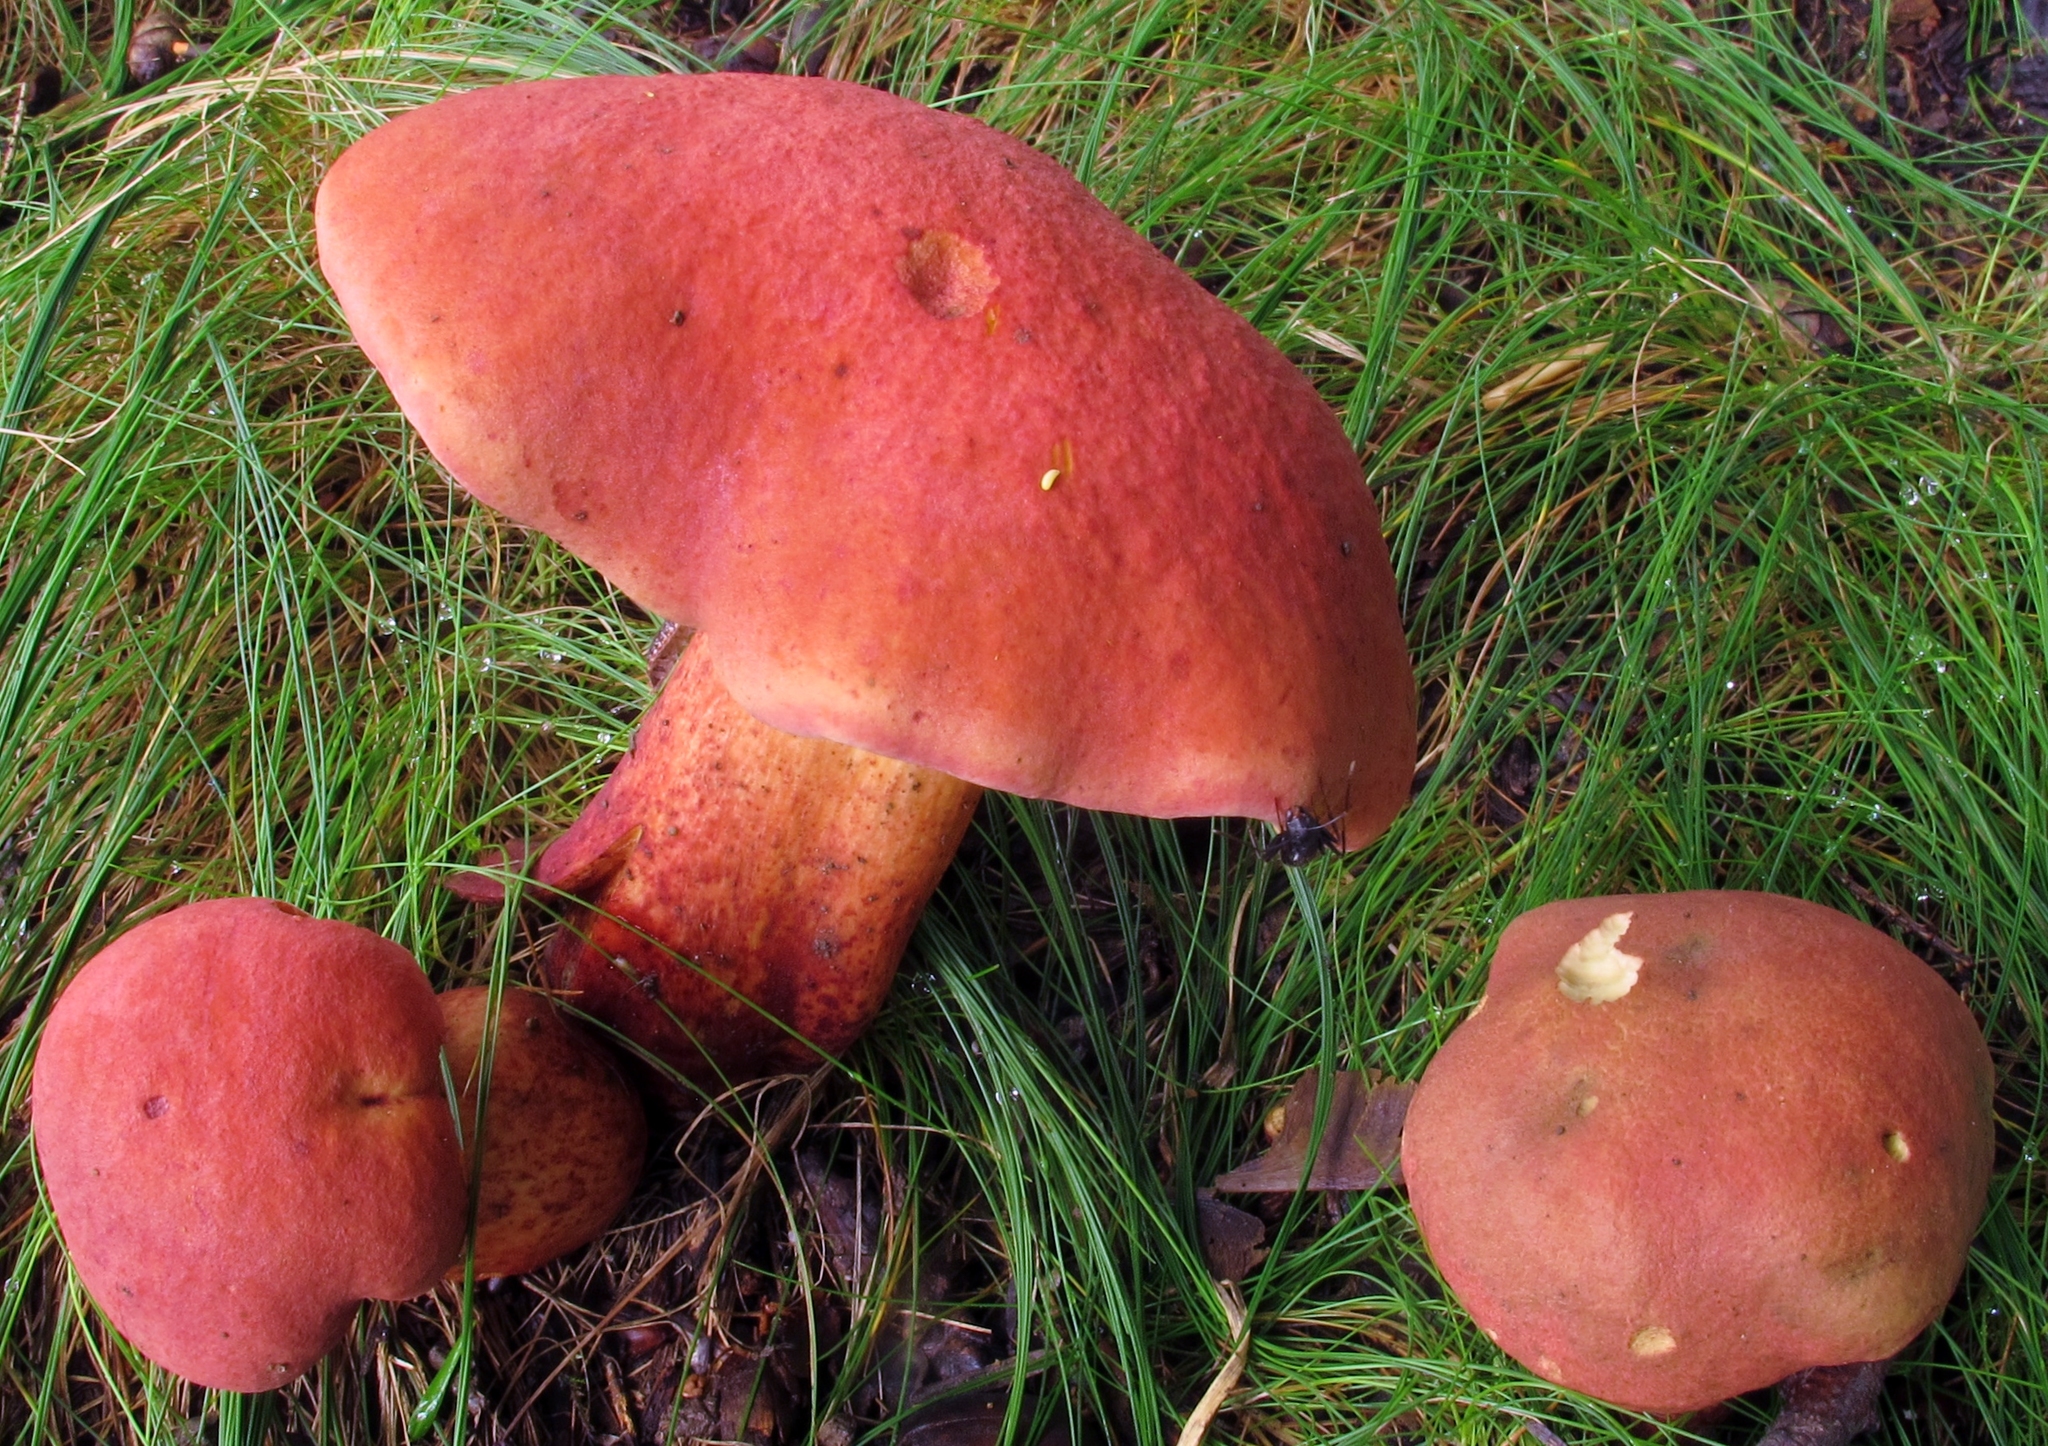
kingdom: Fungi
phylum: Basidiomycota
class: Agaricomycetes
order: Boletales
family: Boletaceae
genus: Baorangia
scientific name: Baorangia bicolor
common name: Two-colored bolete
